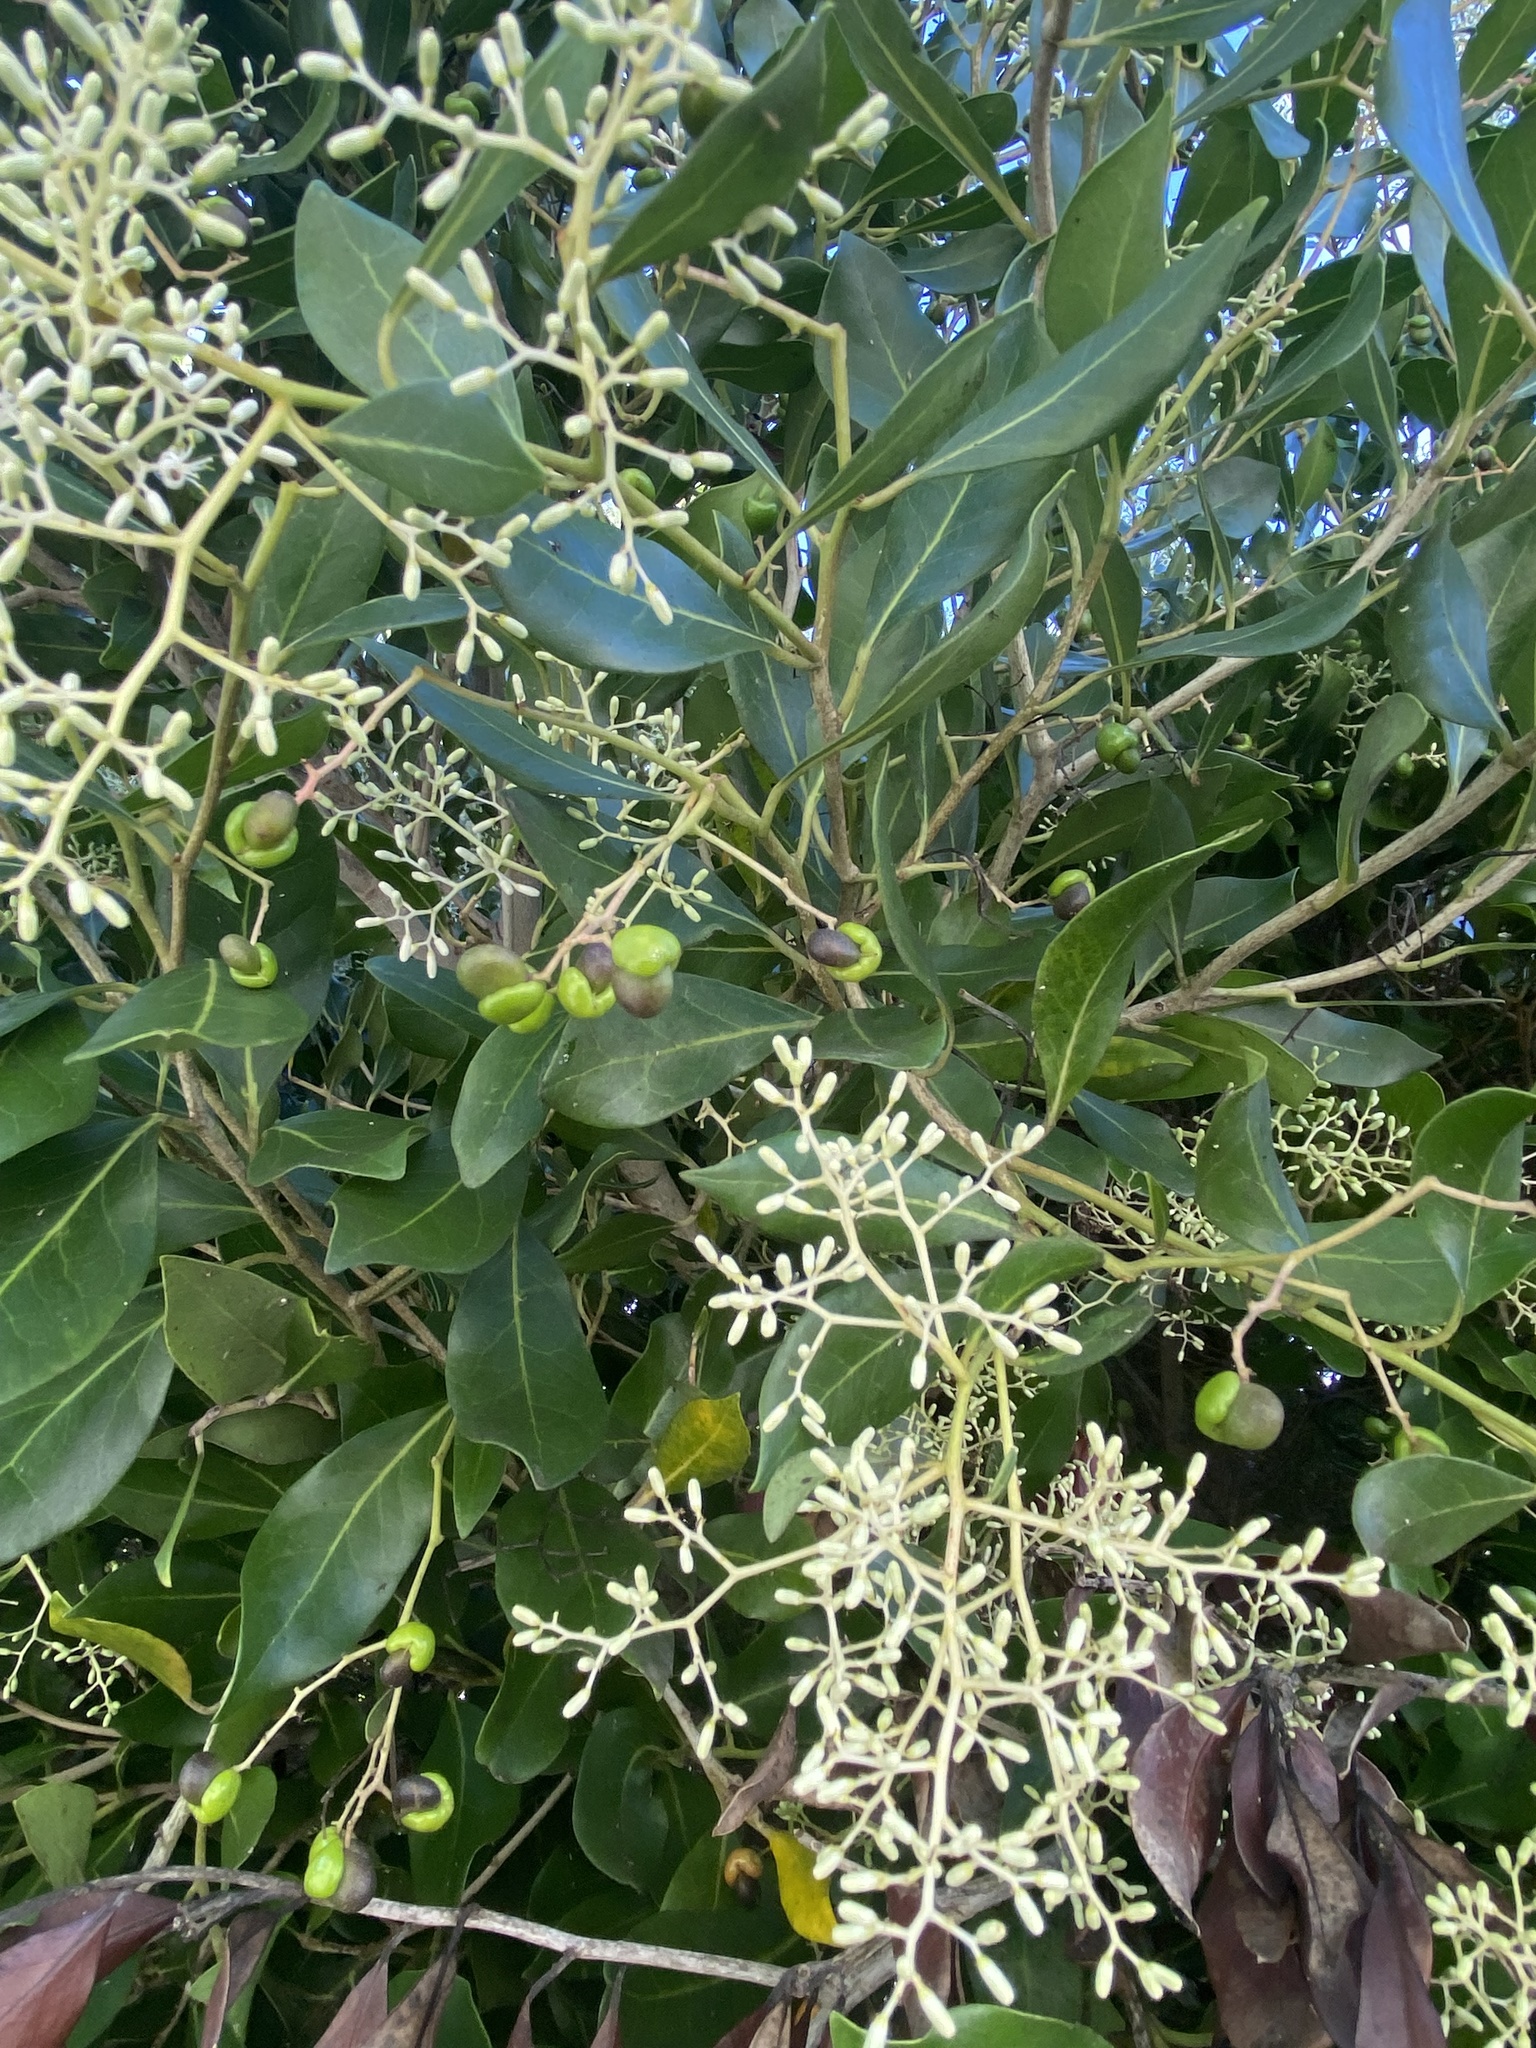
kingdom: Plantae
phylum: Tracheophyta
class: Magnoliopsida
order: Metteniusales
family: Metteniusaceae
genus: Apodytes
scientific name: Apodytes dimidiata
